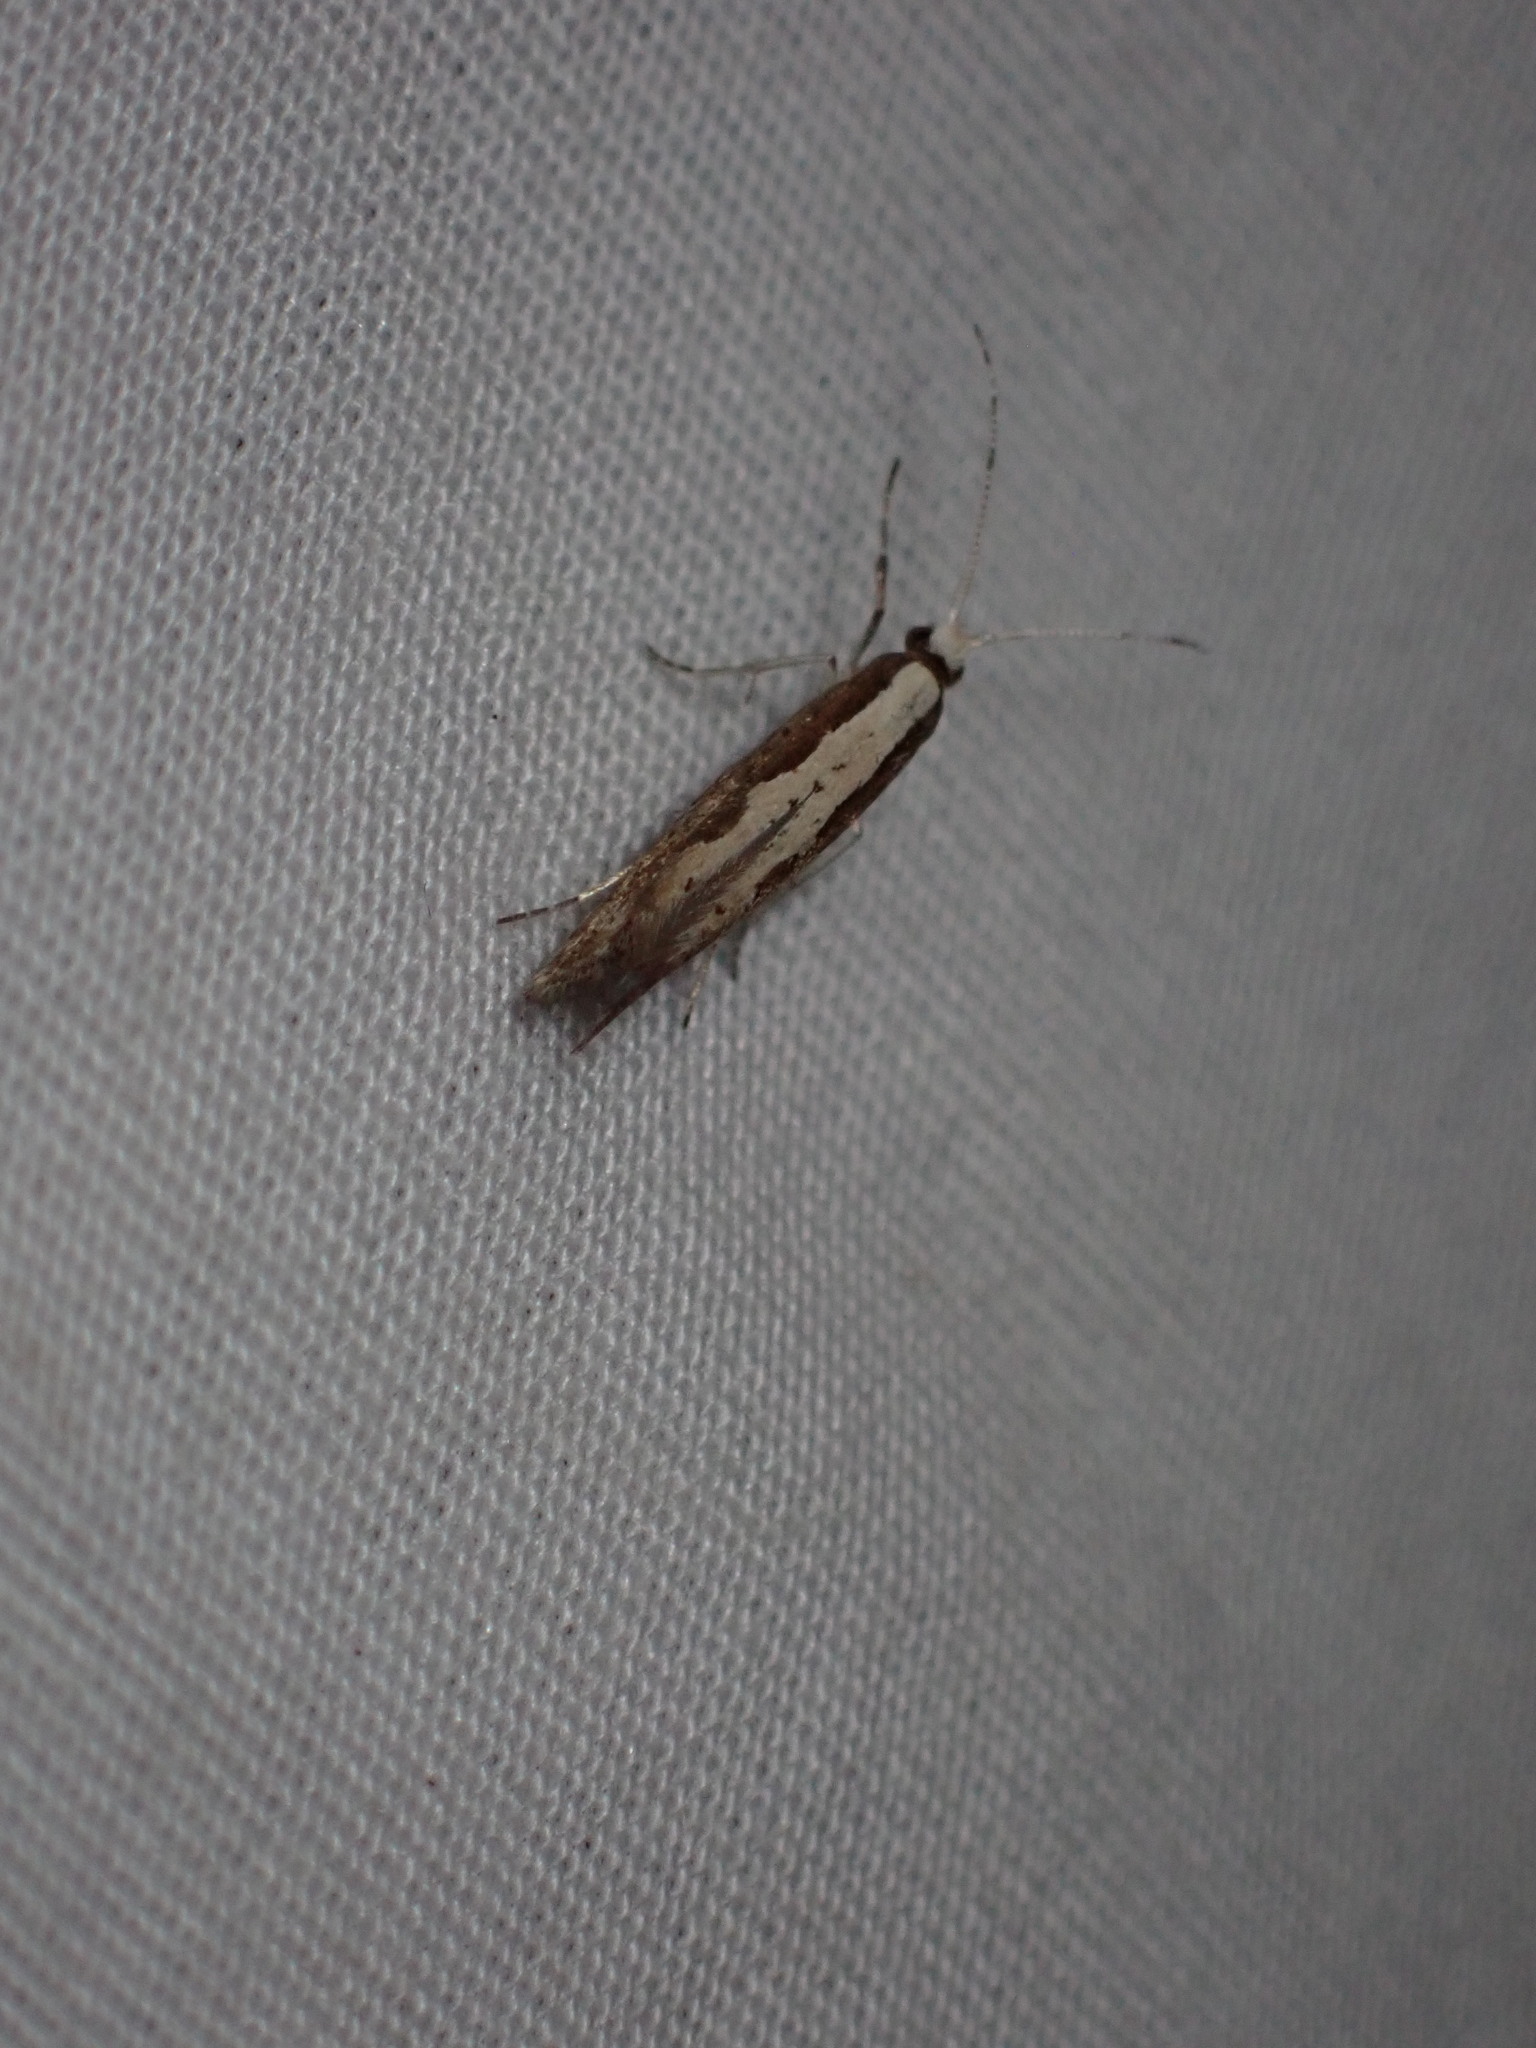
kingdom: Animalia
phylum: Arthropoda
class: Insecta
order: Lepidoptera
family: Plutellidae
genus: Plutella
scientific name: Plutella xylostella
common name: Diamond-back moth
